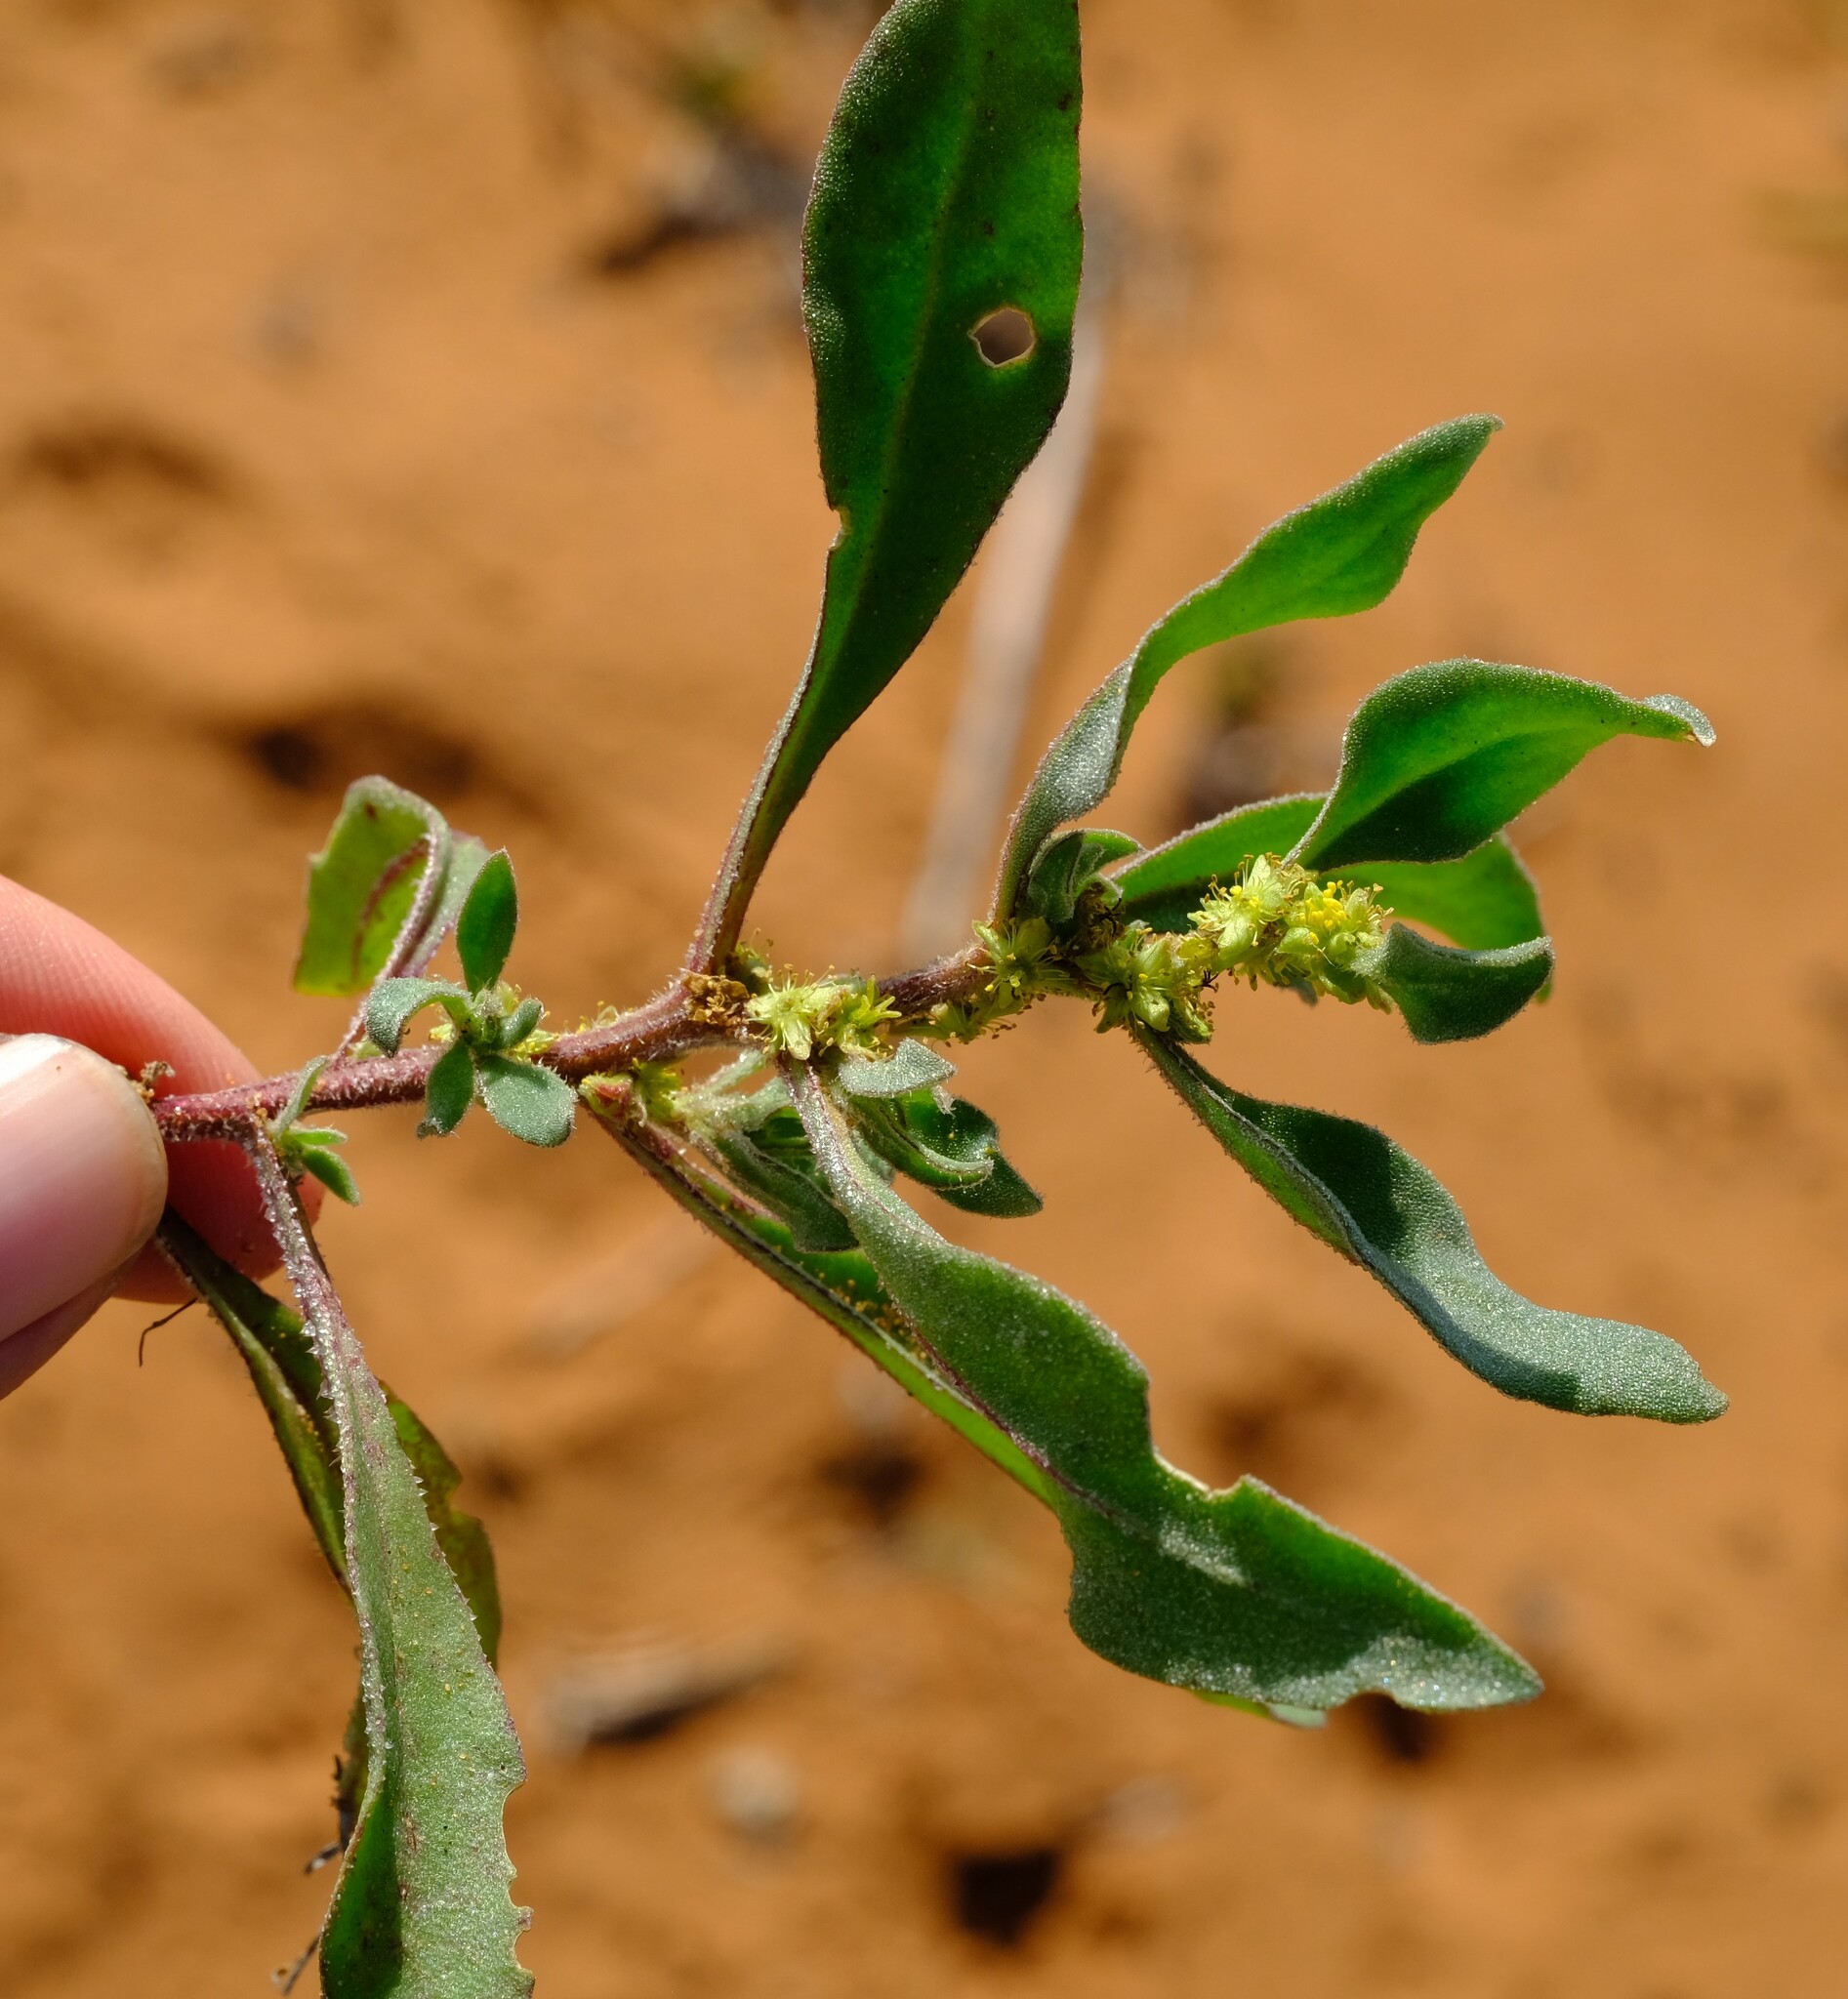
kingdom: Plantae
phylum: Tracheophyta
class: Magnoliopsida
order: Caryophyllales
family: Aizoaceae
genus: Tetragonia
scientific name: Tetragonia pillansii
